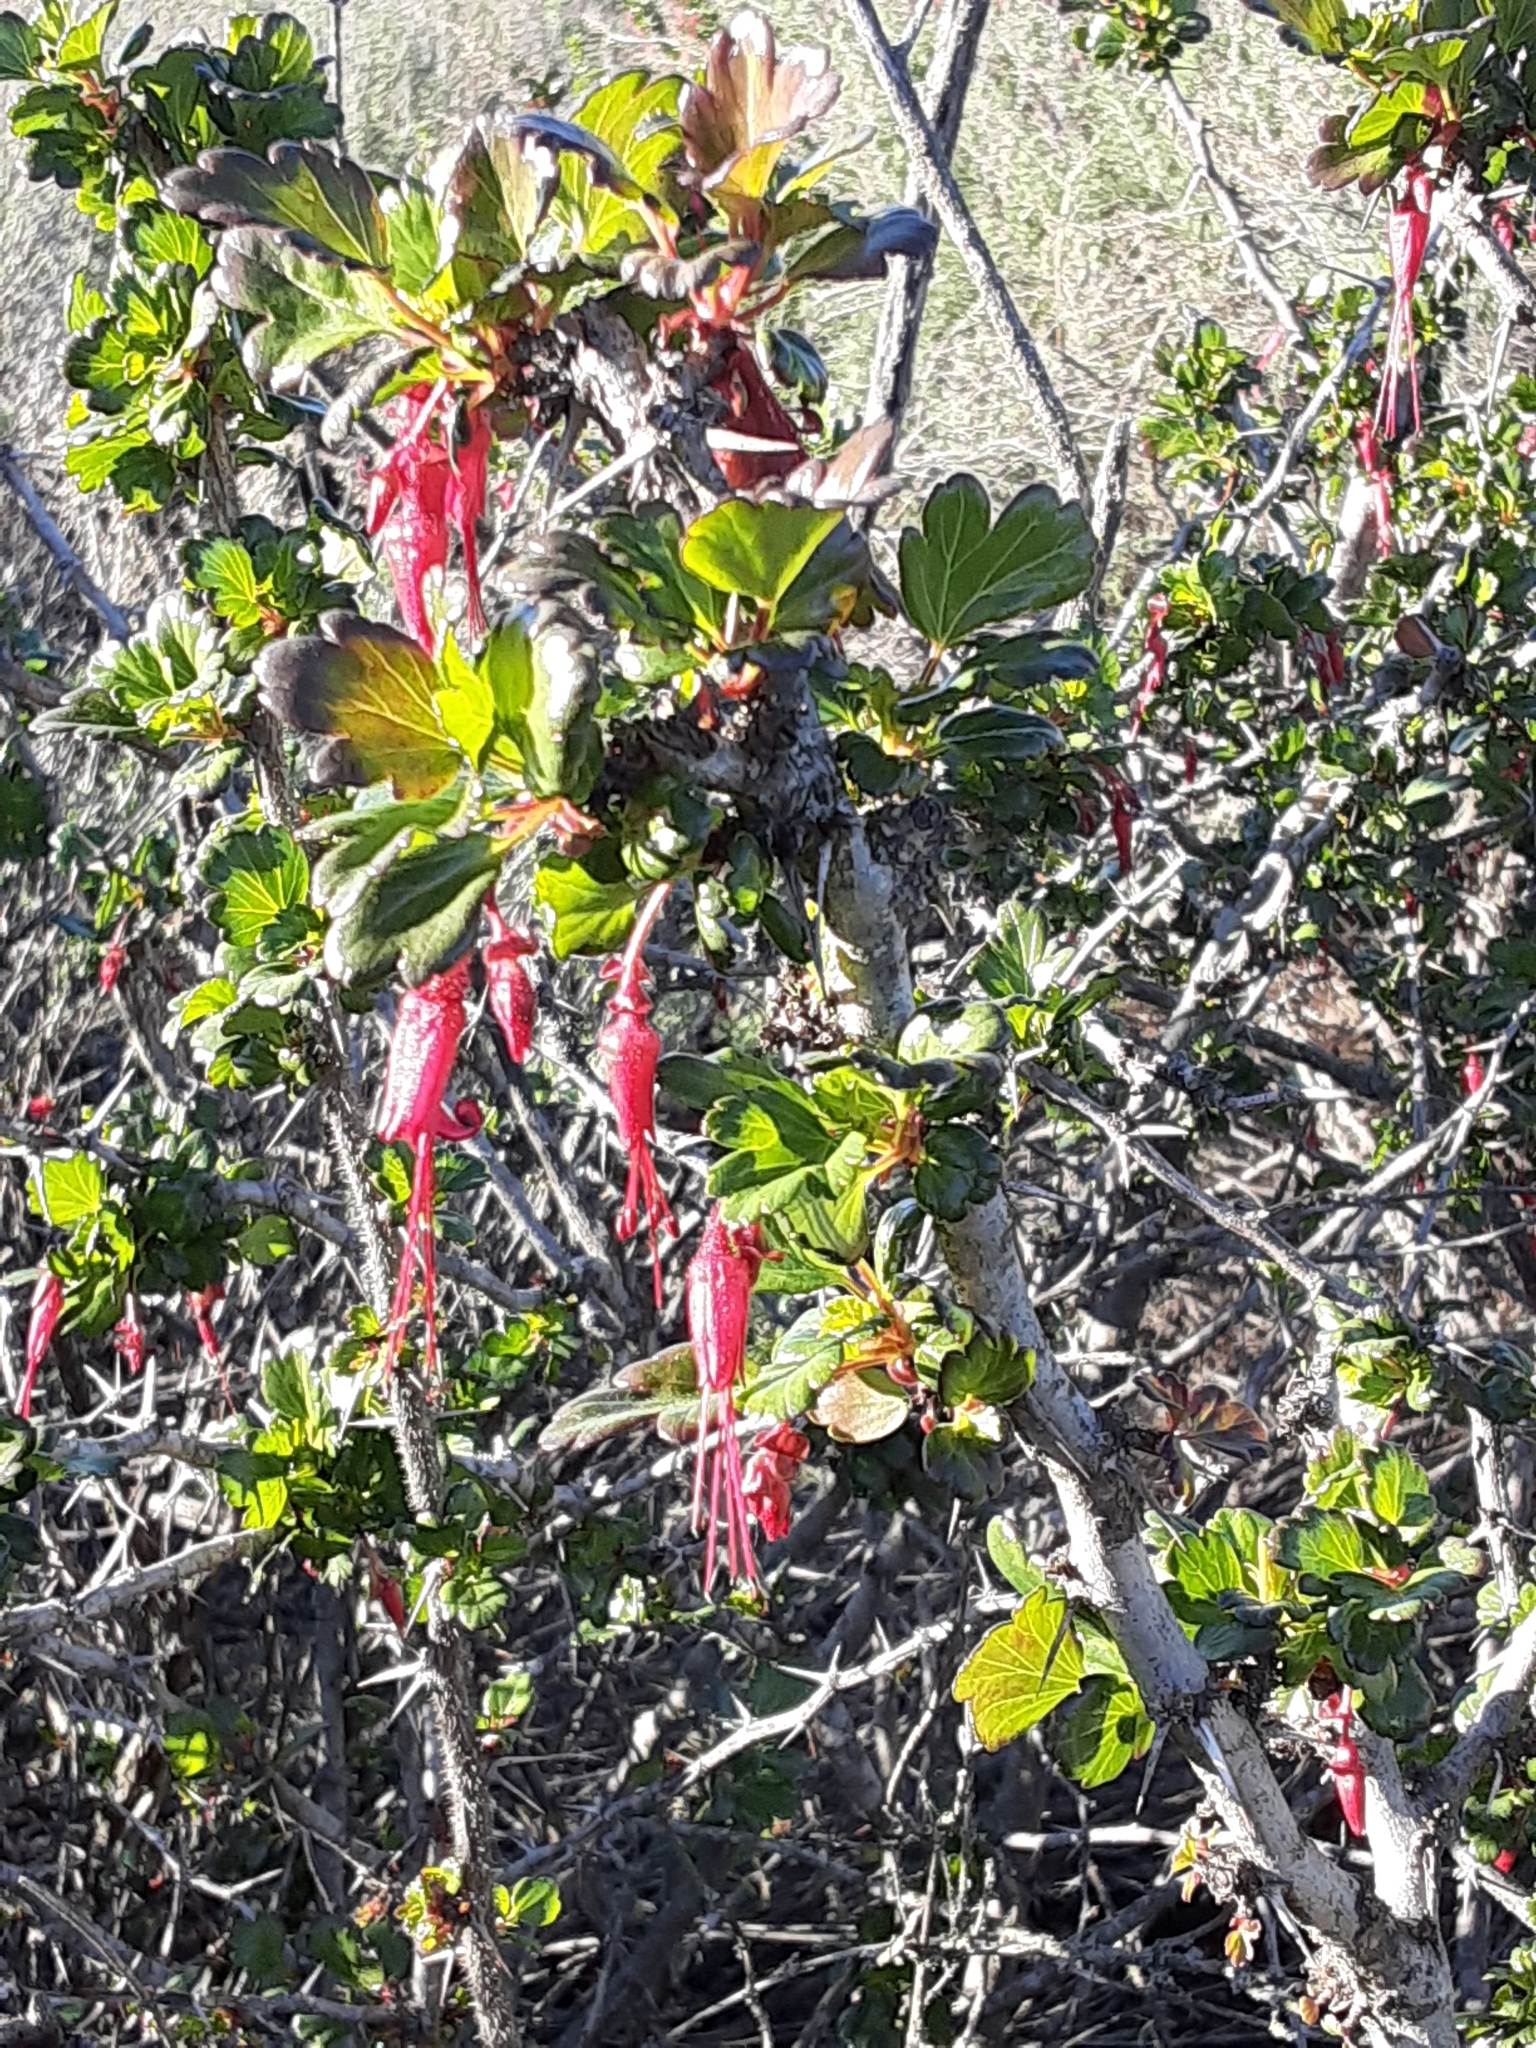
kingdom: Plantae
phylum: Tracheophyta
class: Magnoliopsida
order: Saxifragales
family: Grossulariaceae
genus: Ribes
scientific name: Ribes speciosum
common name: Fuchsia-flower gooseberry
